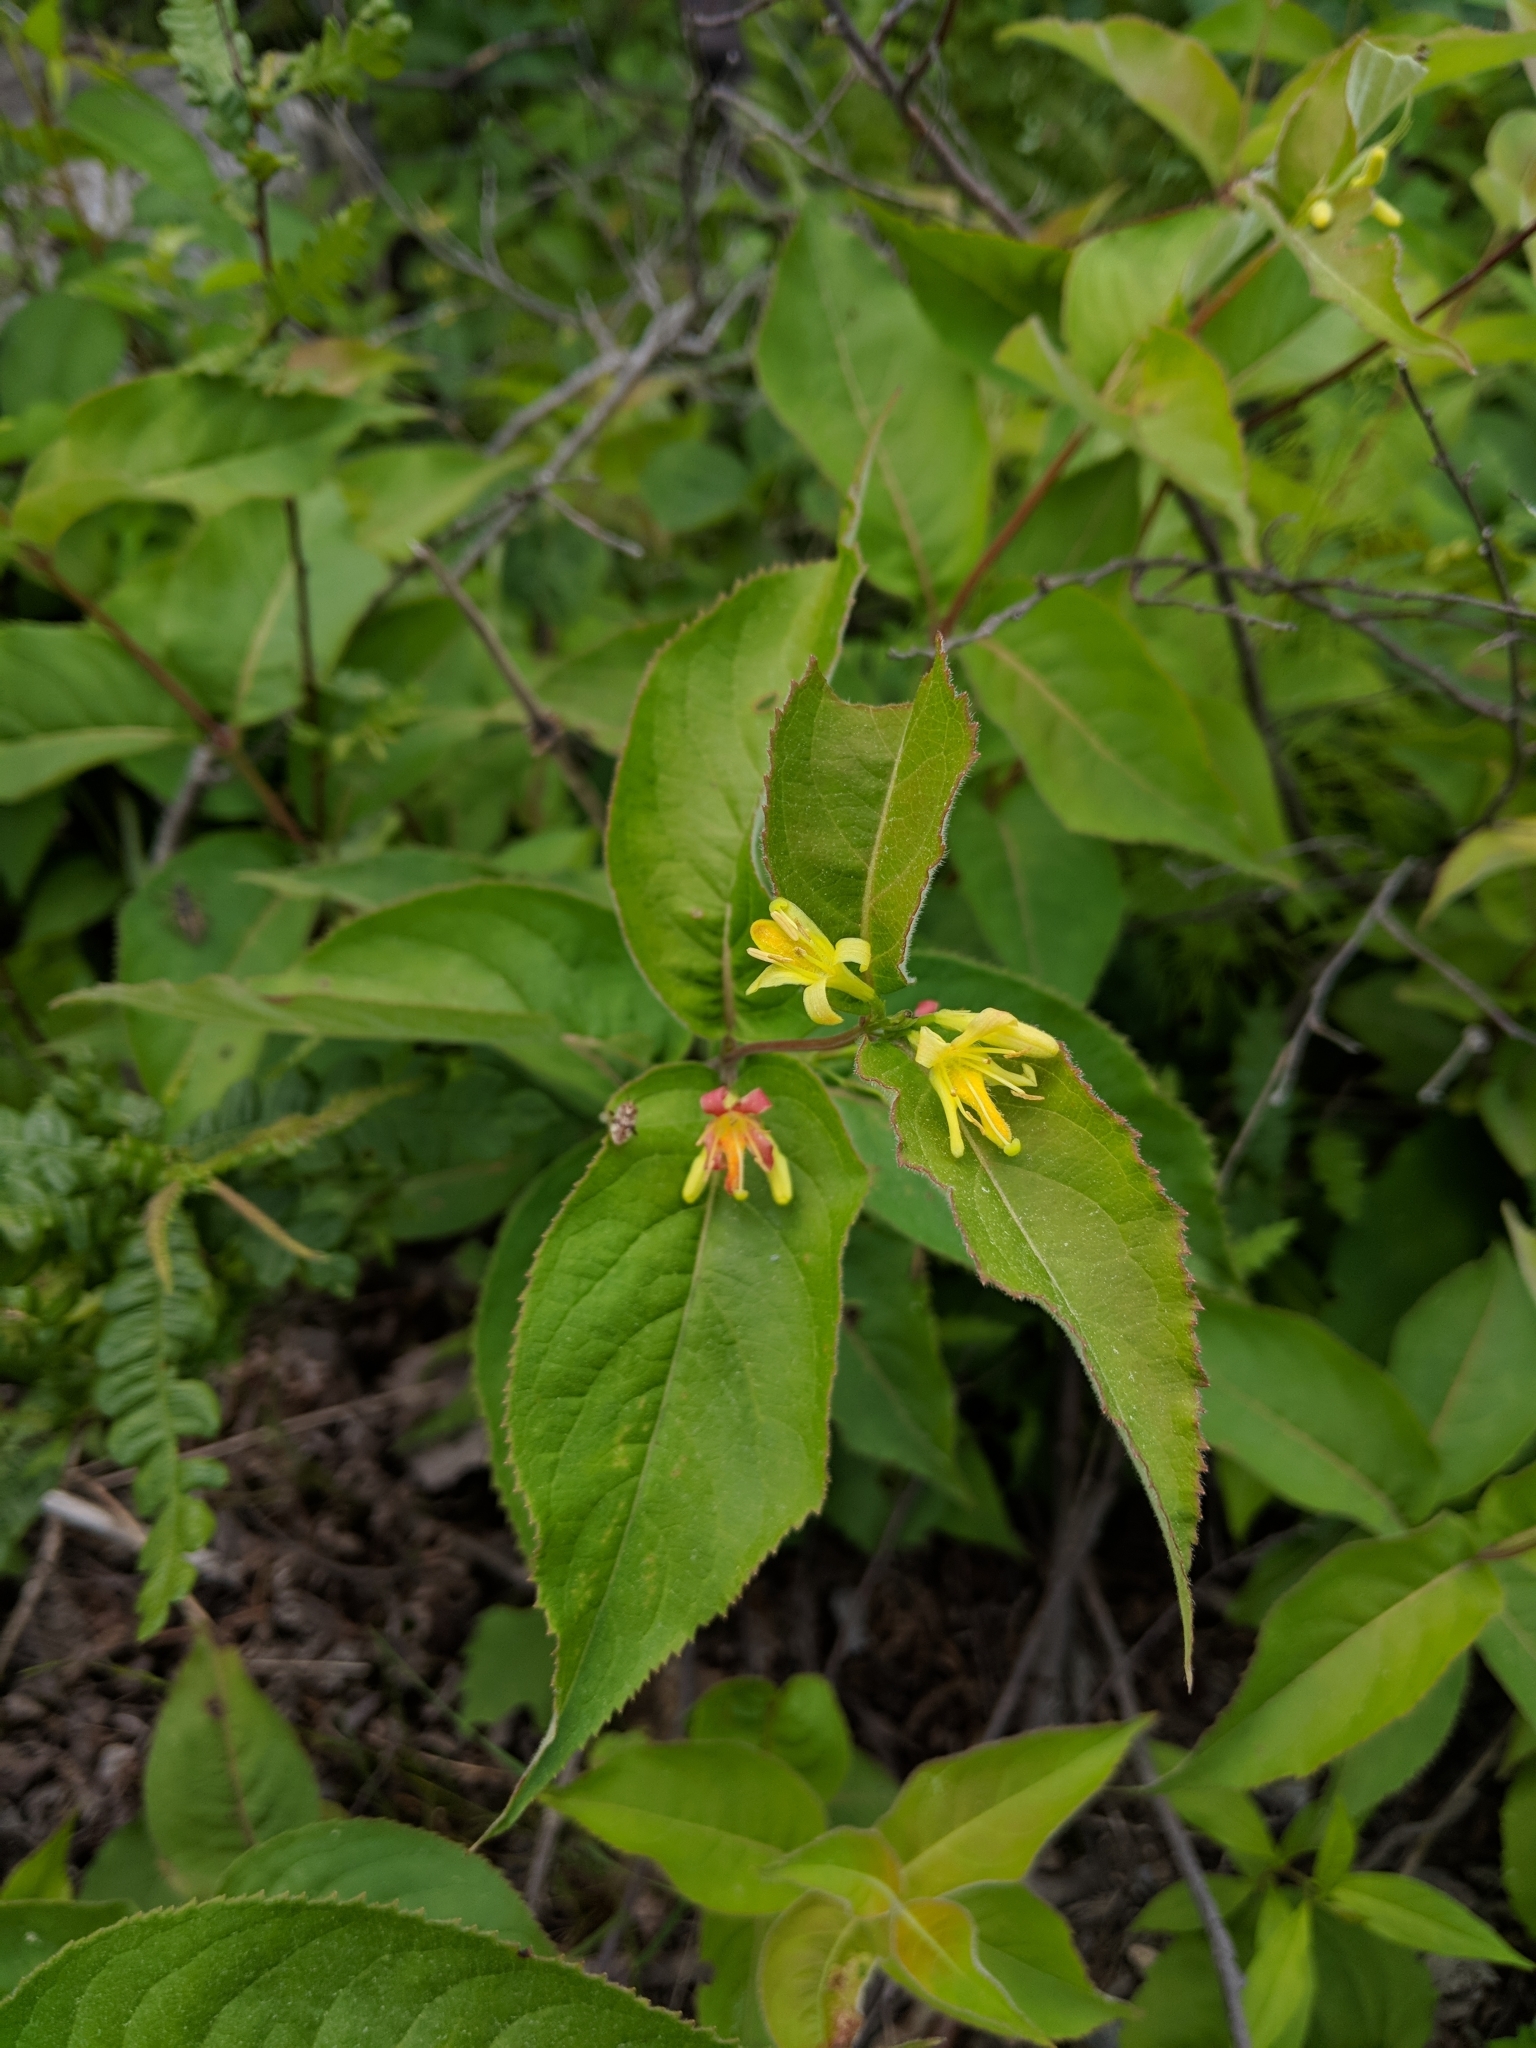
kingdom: Plantae
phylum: Tracheophyta
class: Magnoliopsida
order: Dipsacales
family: Caprifoliaceae
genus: Diervilla
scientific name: Diervilla lonicera
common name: Bush-honeysuckle
